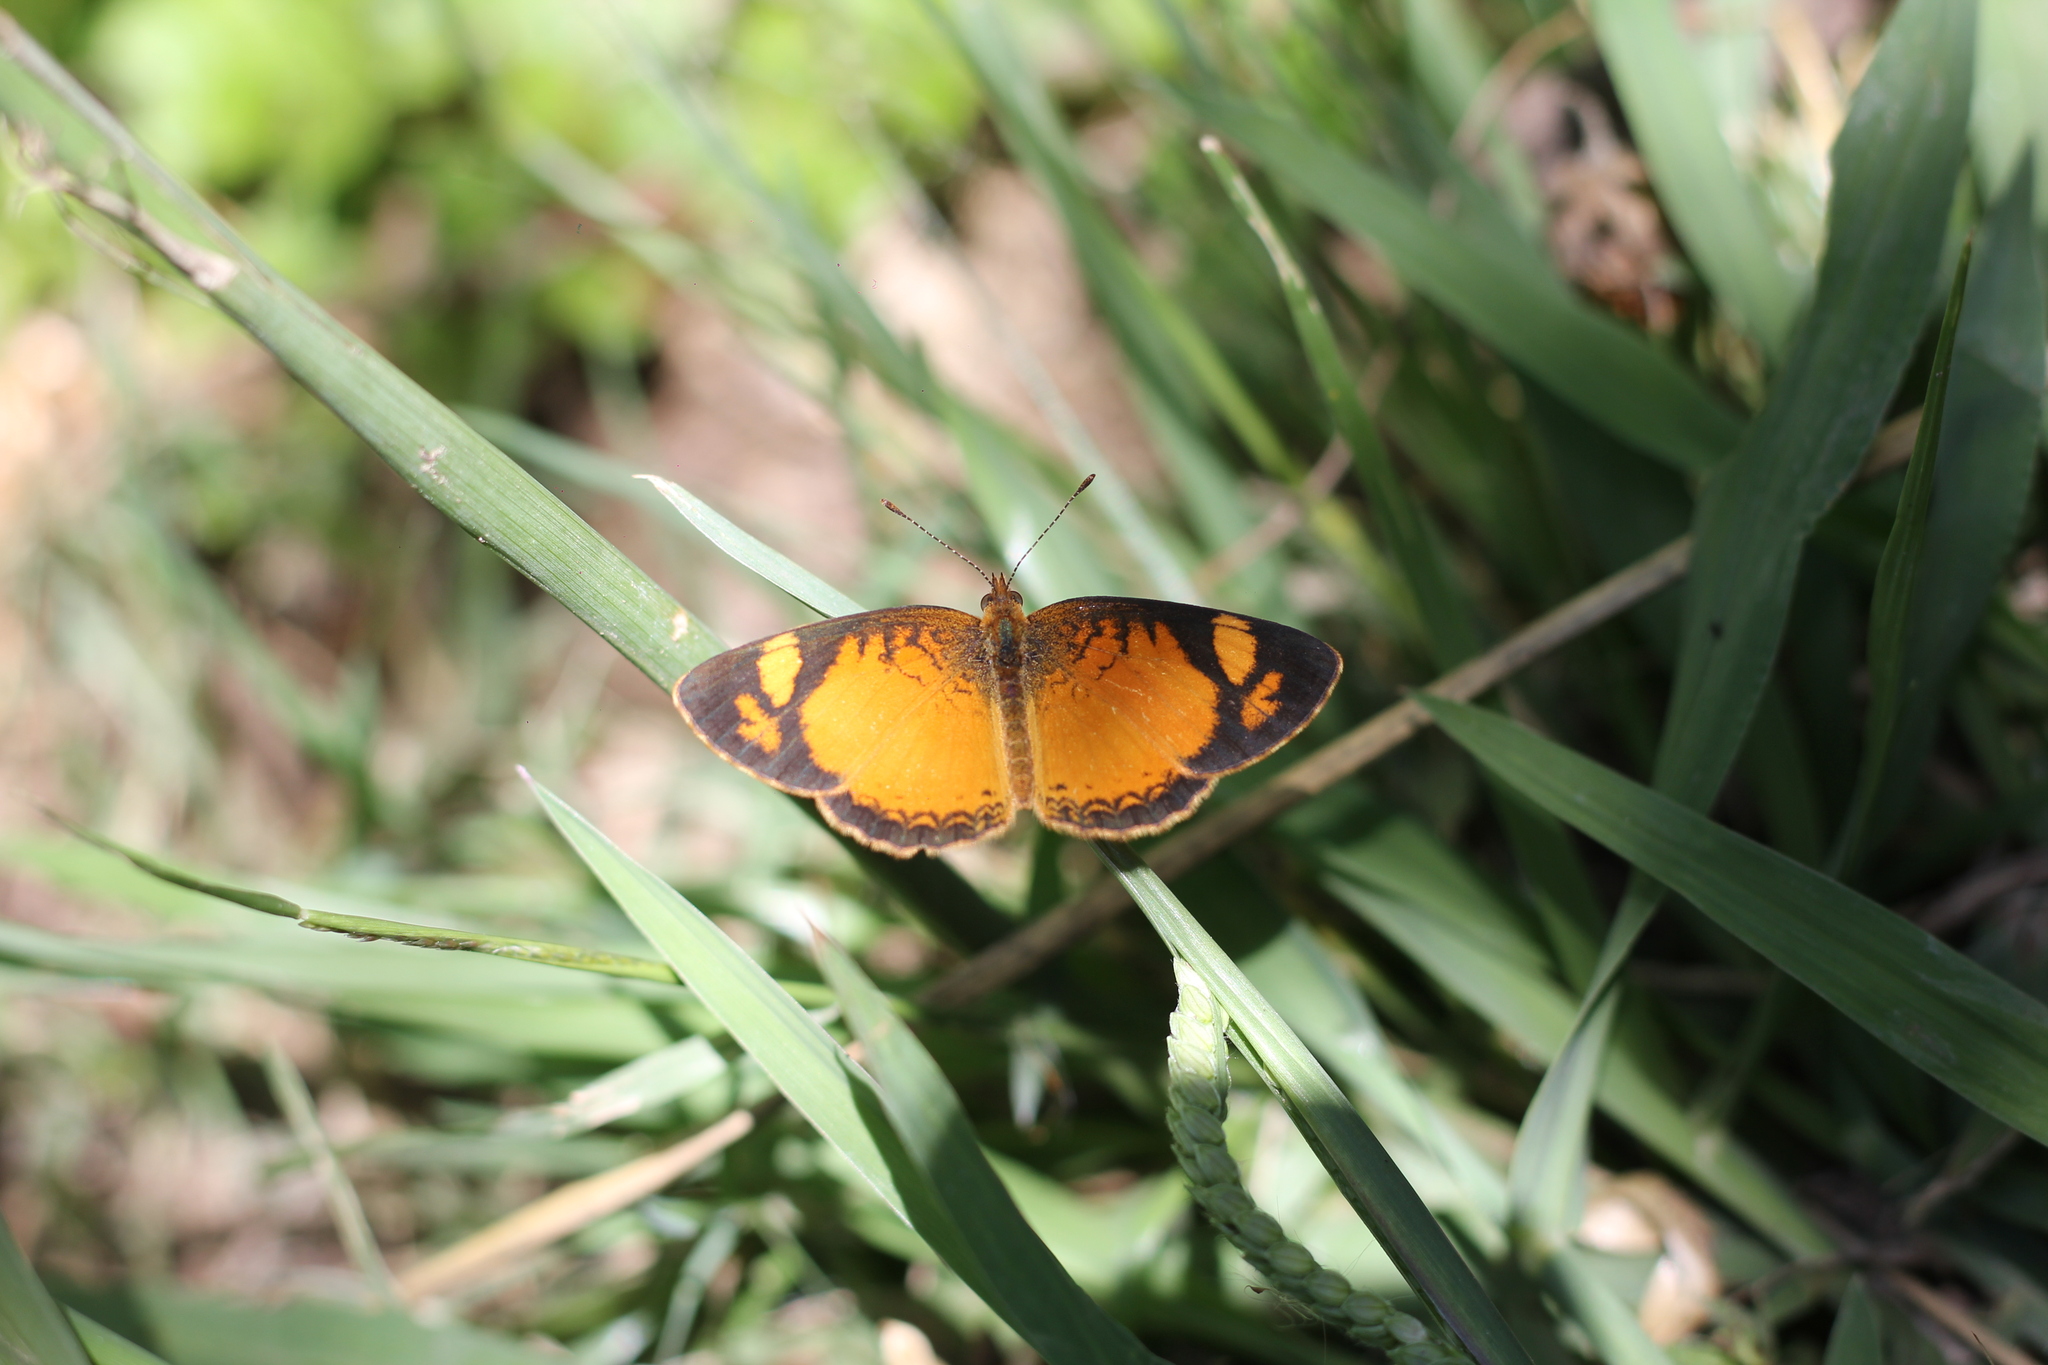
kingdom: Animalia
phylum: Arthropoda
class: Insecta
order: Lepidoptera
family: Nymphalidae
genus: Tegosa
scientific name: Tegosa claudina
